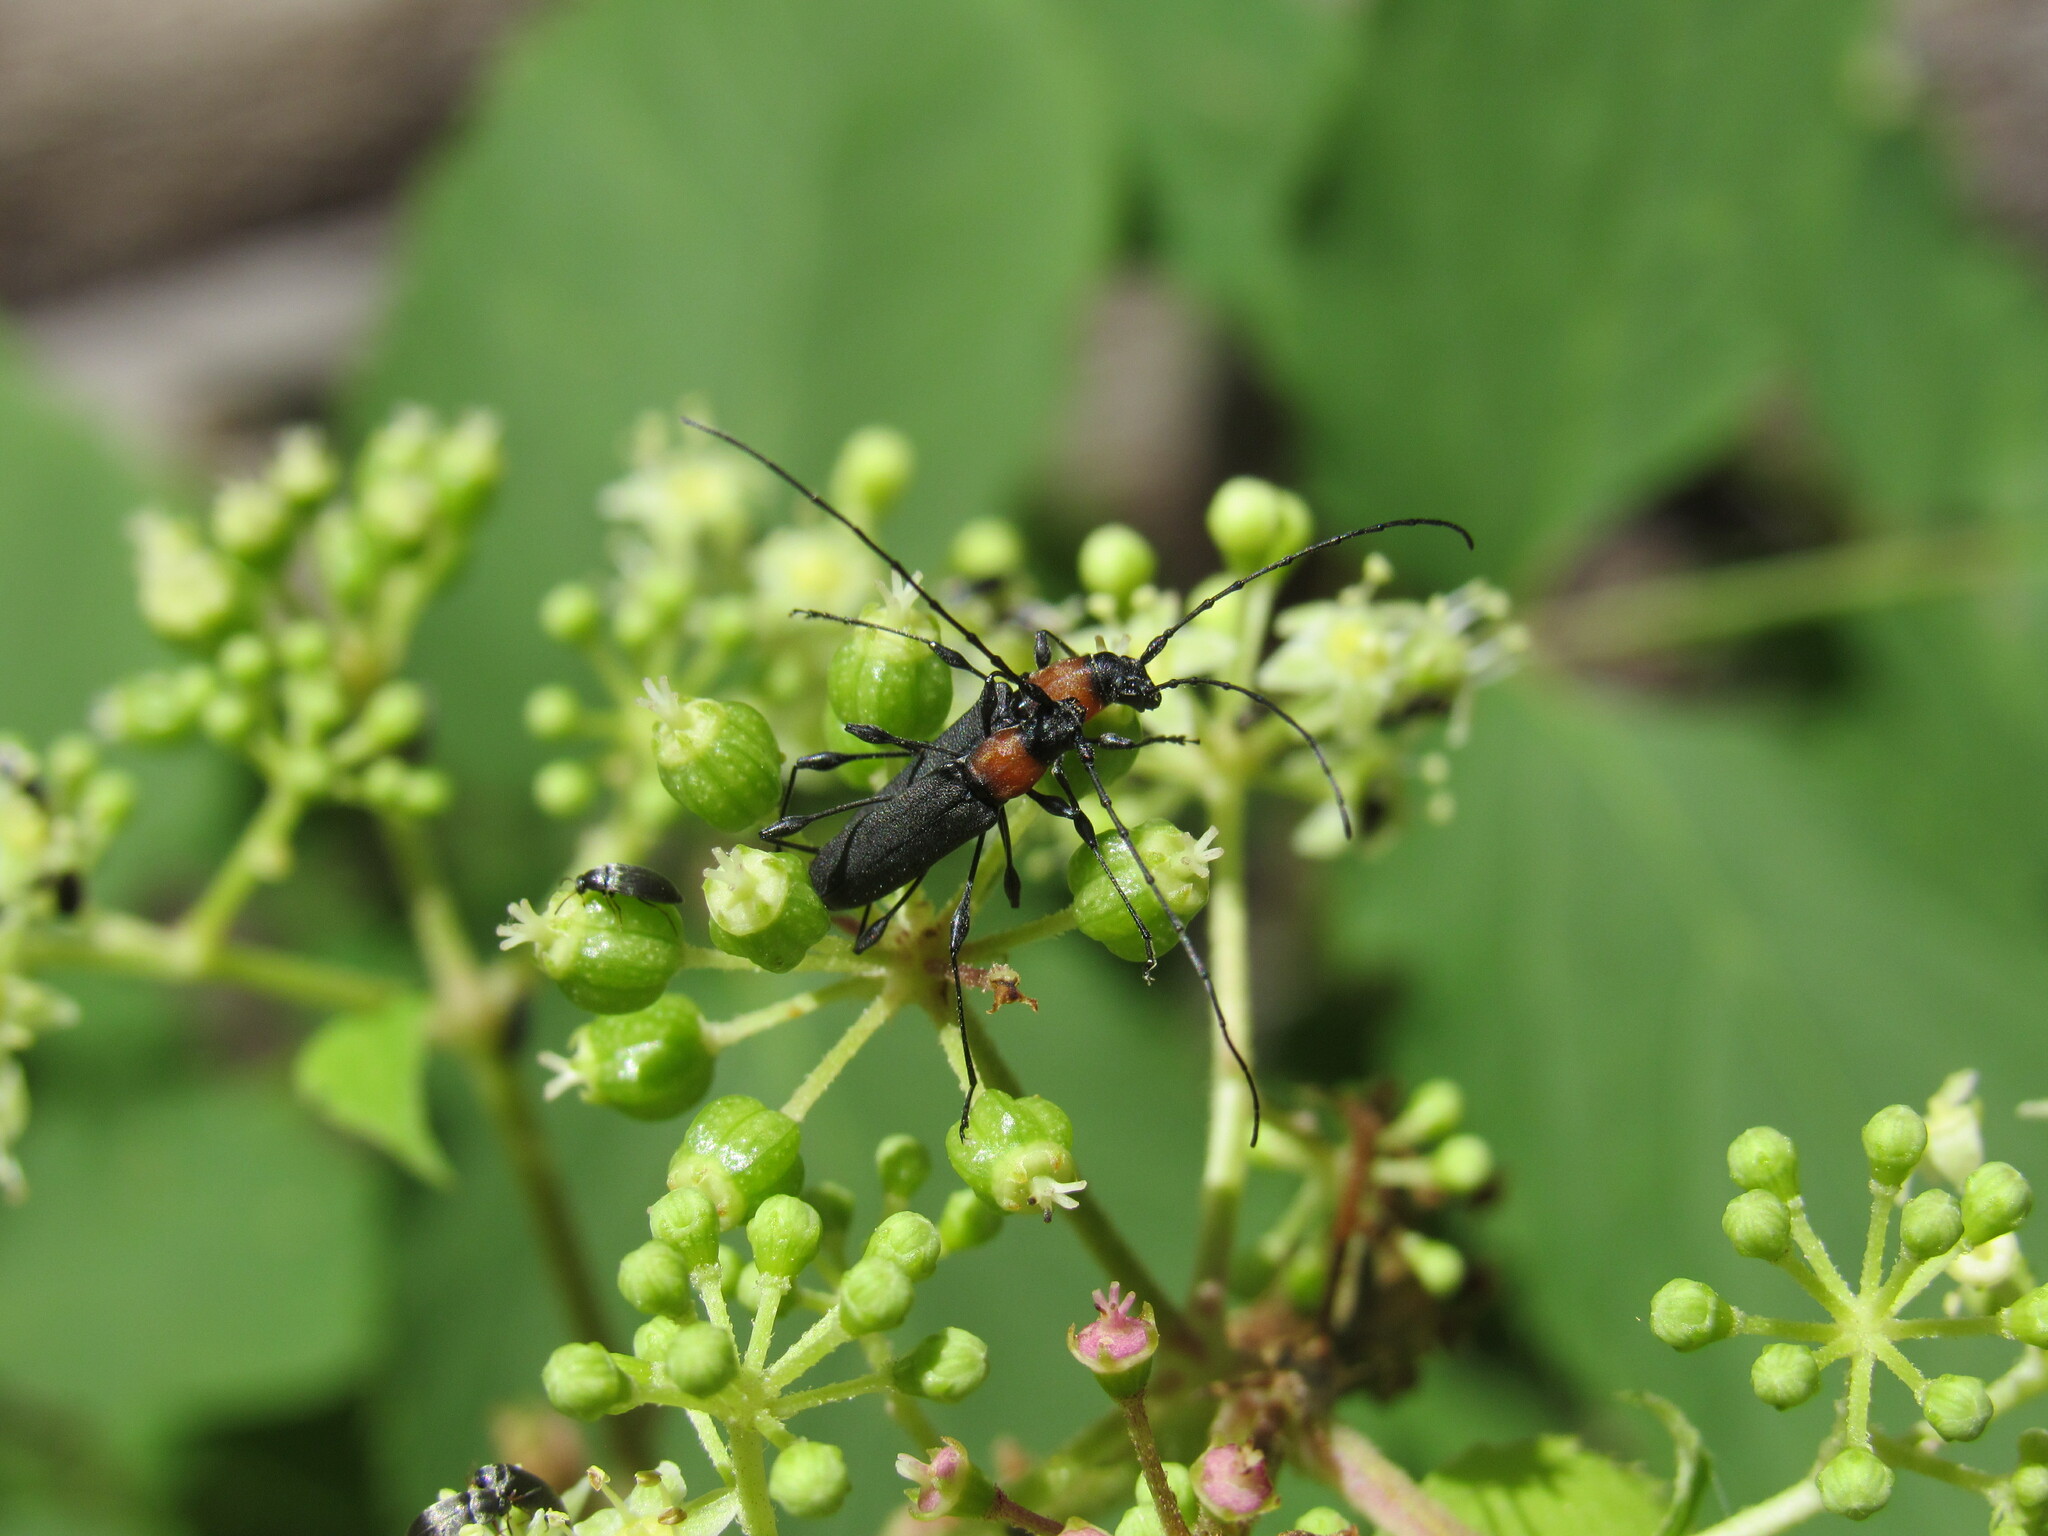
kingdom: Animalia
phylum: Arthropoda
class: Insecta
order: Coleoptera
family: Cerambycidae
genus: Rhopalophora
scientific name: Rhopalophora meeskei
